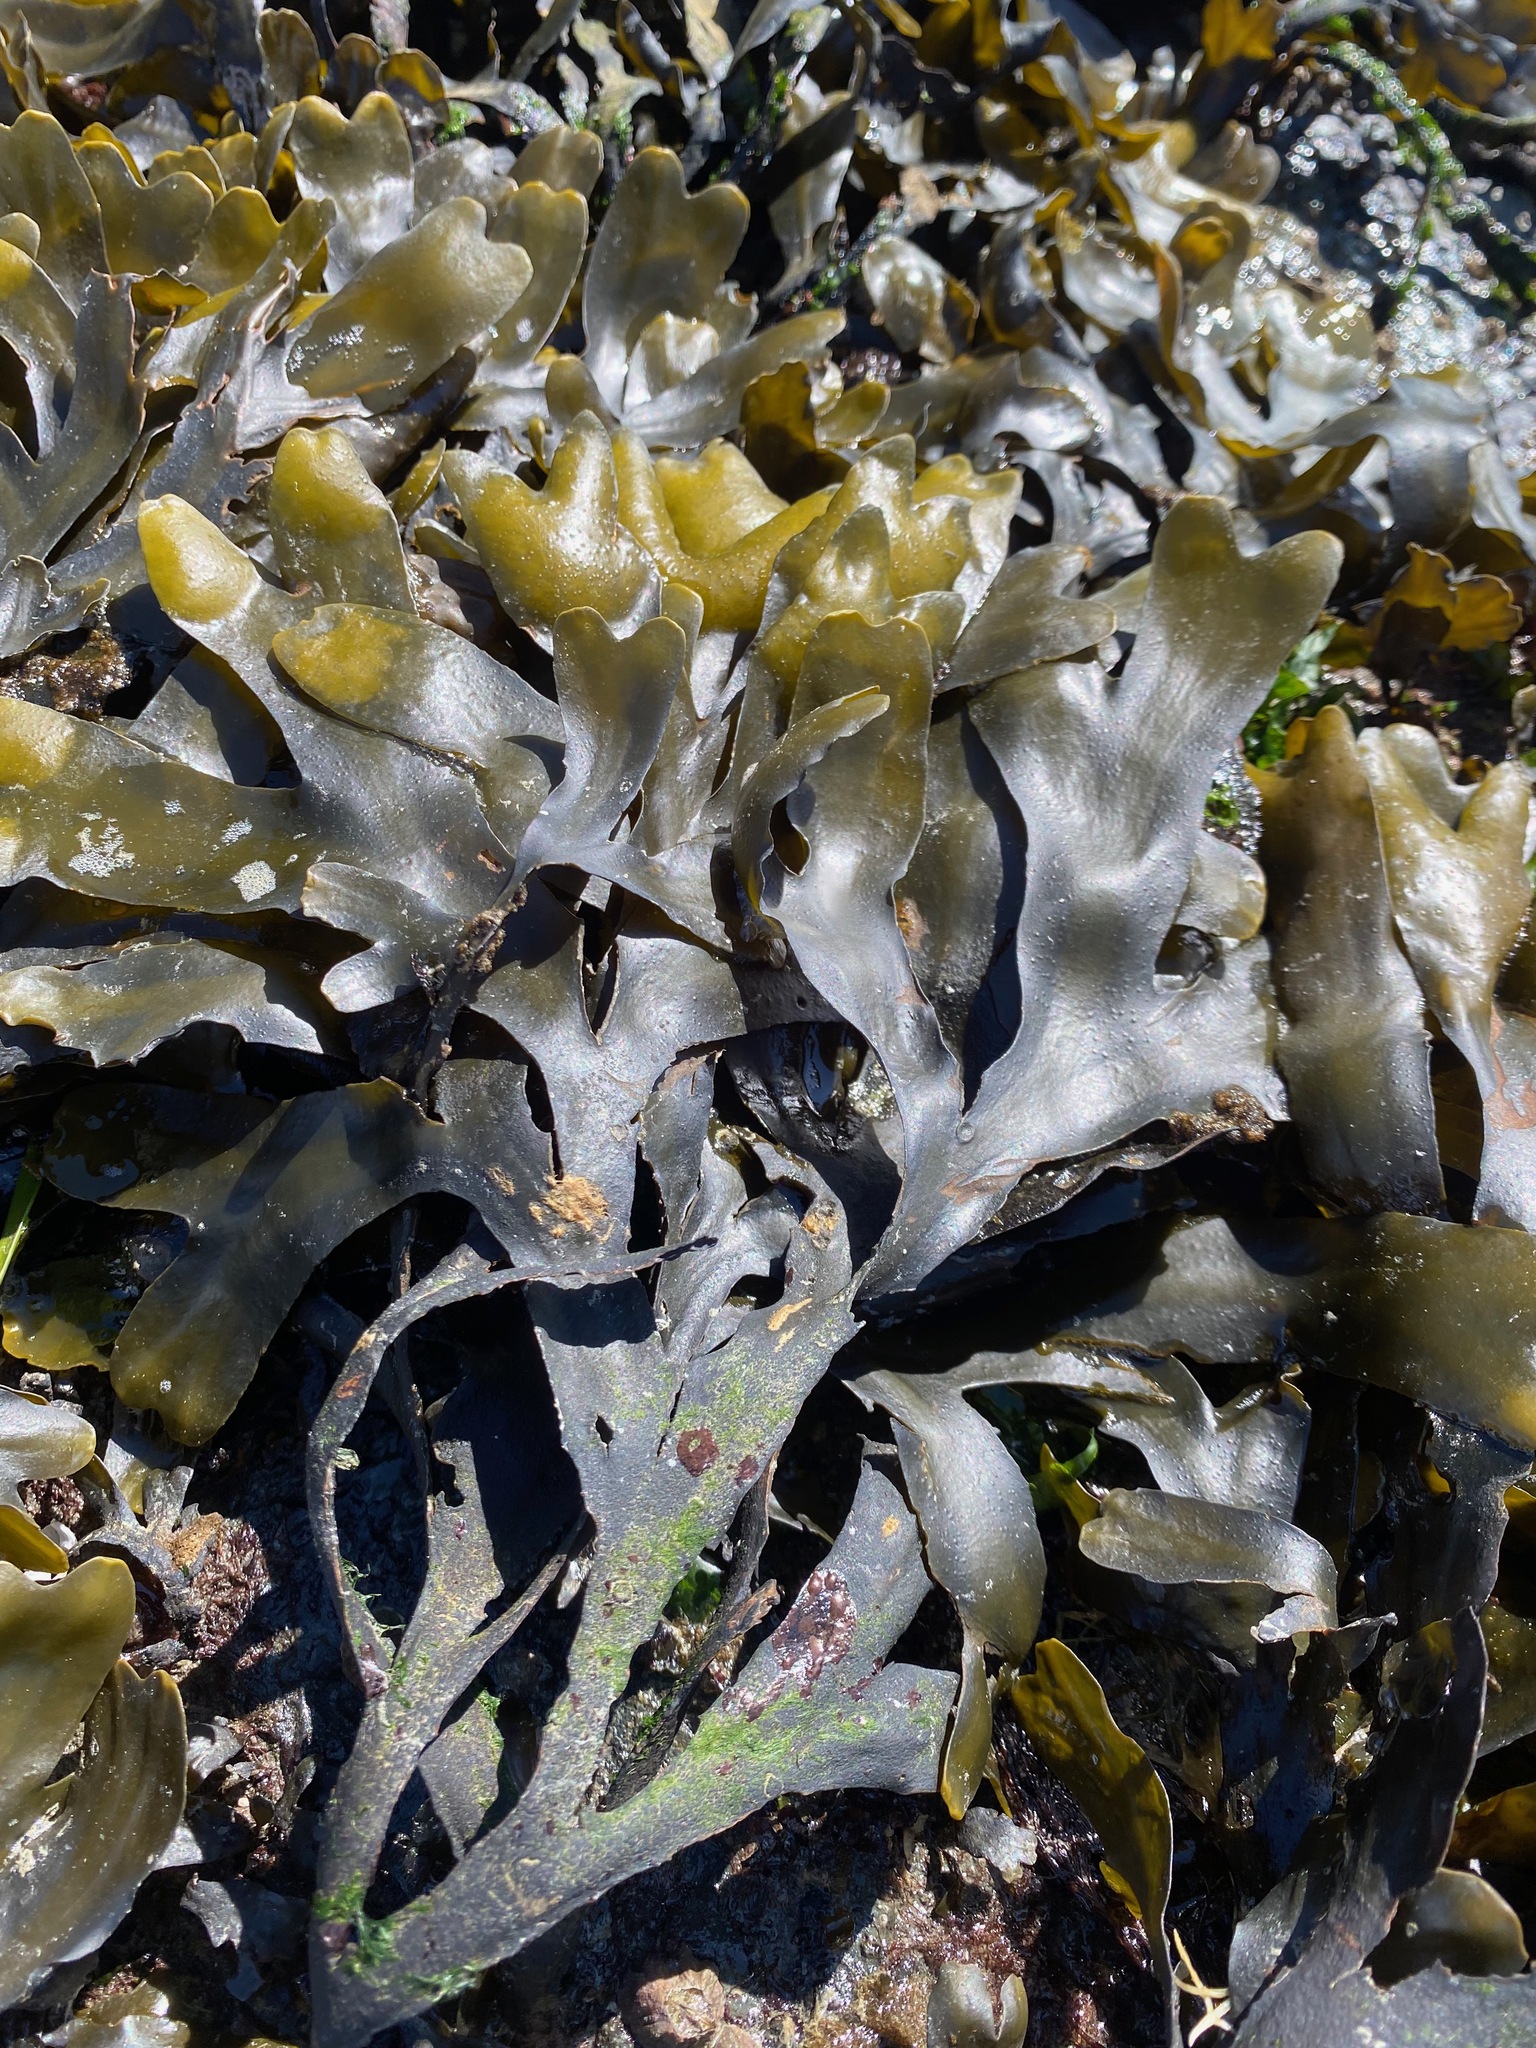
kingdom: Chromista
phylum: Ochrophyta
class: Phaeophyceae
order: Fucales
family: Fucaceae
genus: Fucus
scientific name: Fucus distichus
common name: Rockweed
